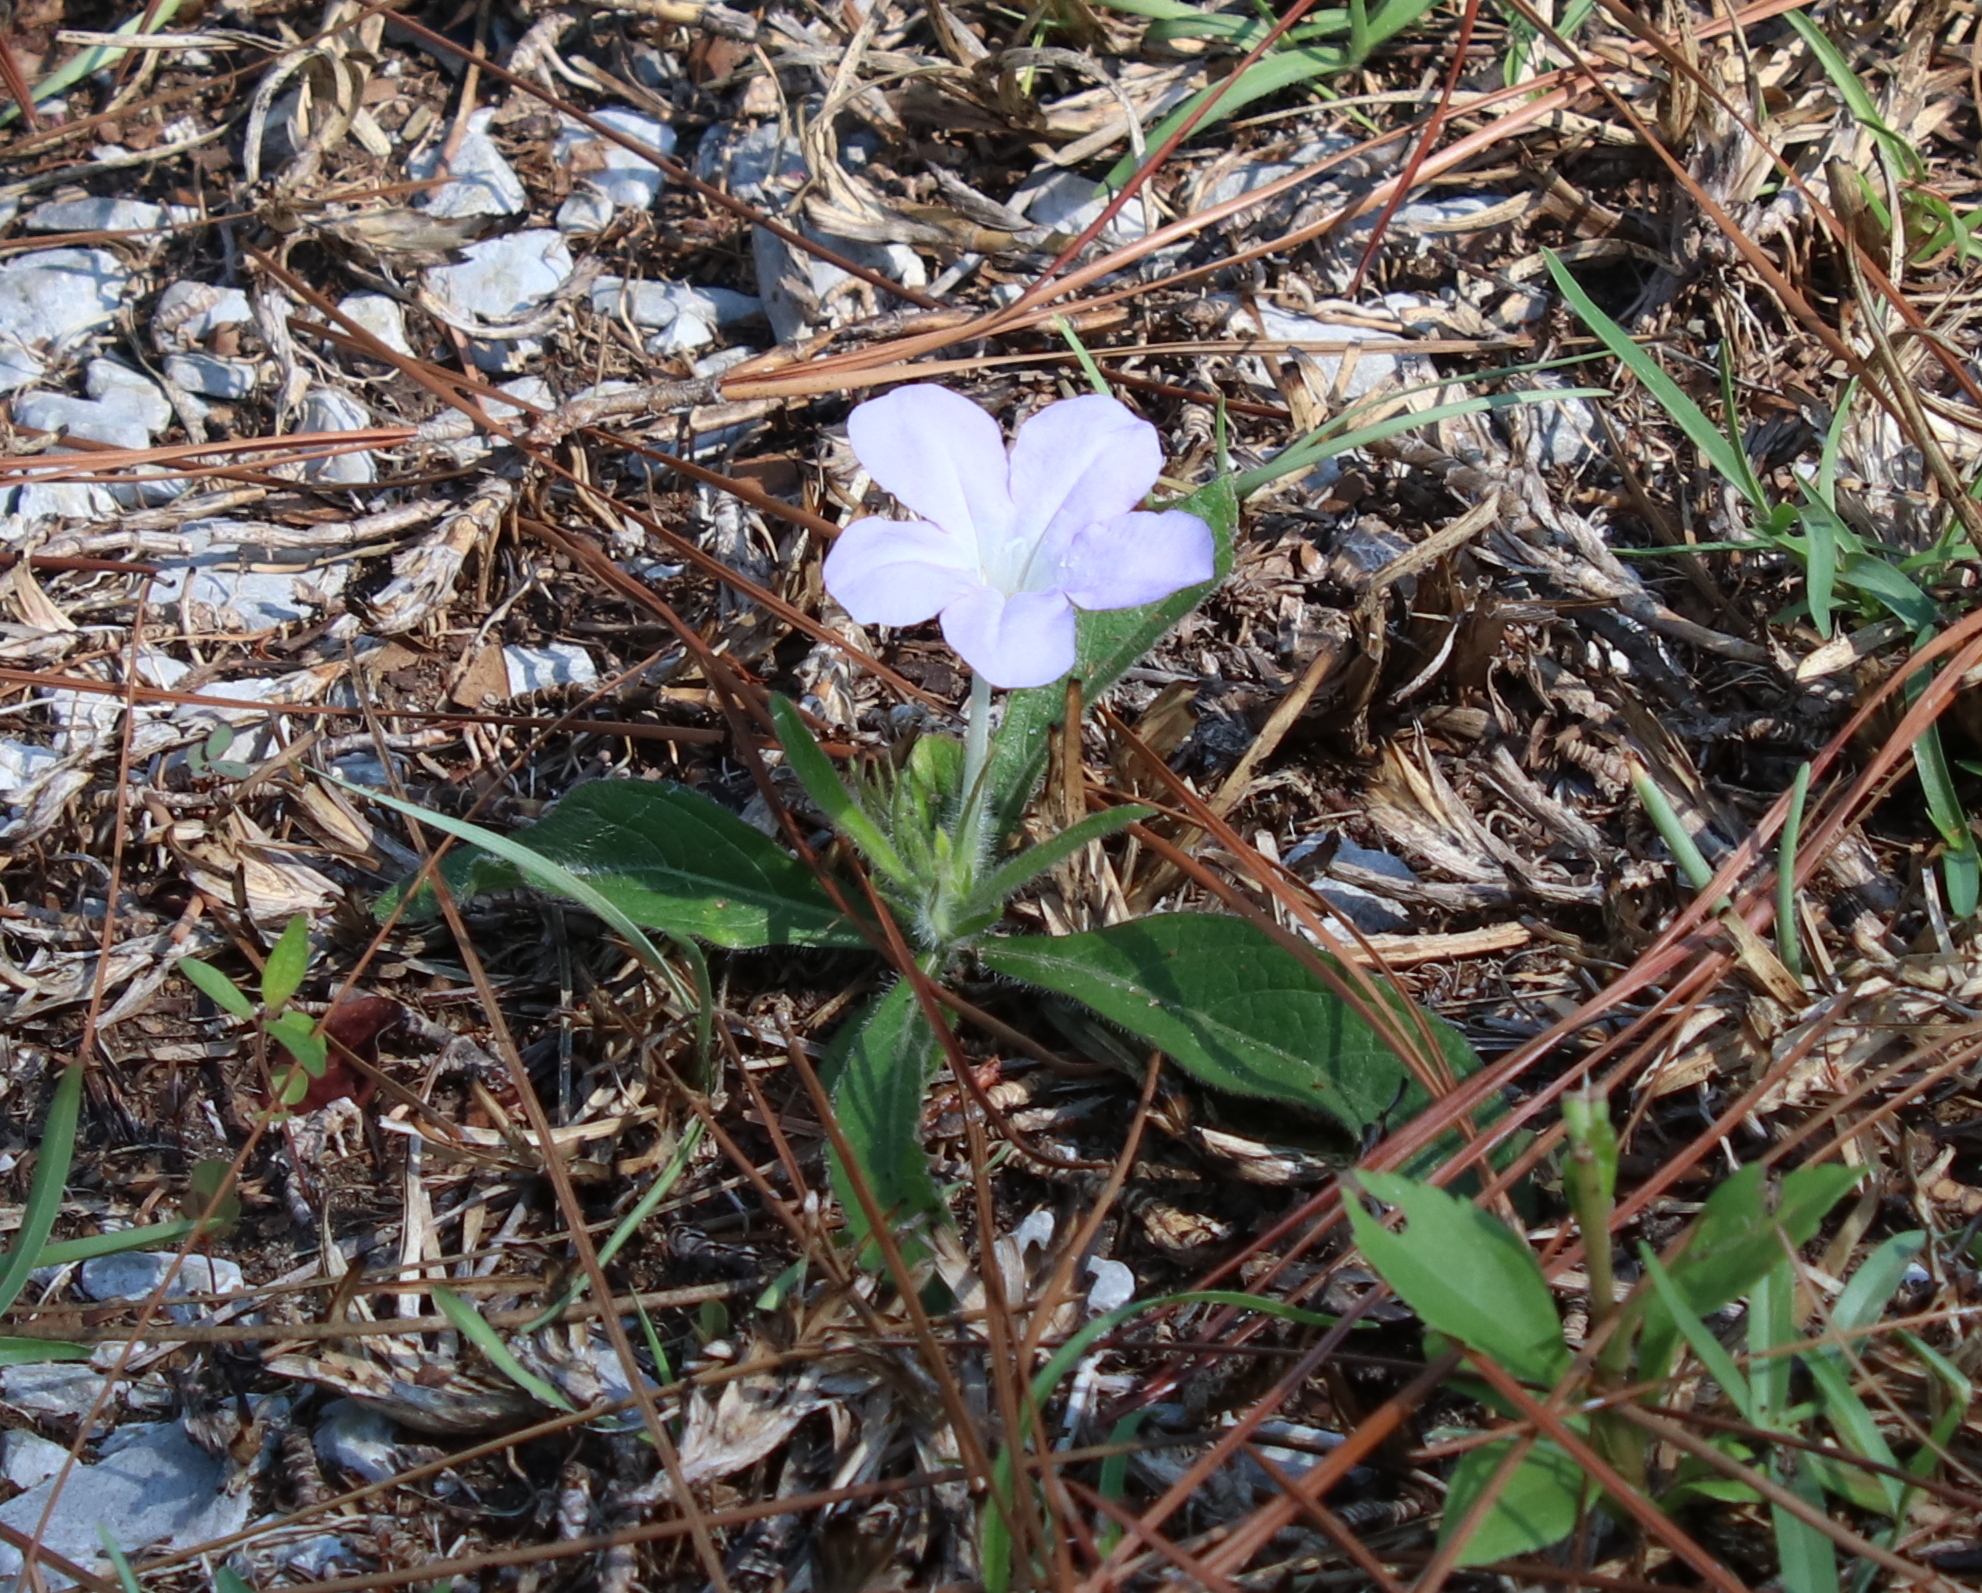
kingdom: Plantae
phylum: Tracheophyta
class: Magnoliopsida
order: Lamiales
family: Acanthaceae
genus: Ruellia
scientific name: Ruellia caroliniensis
